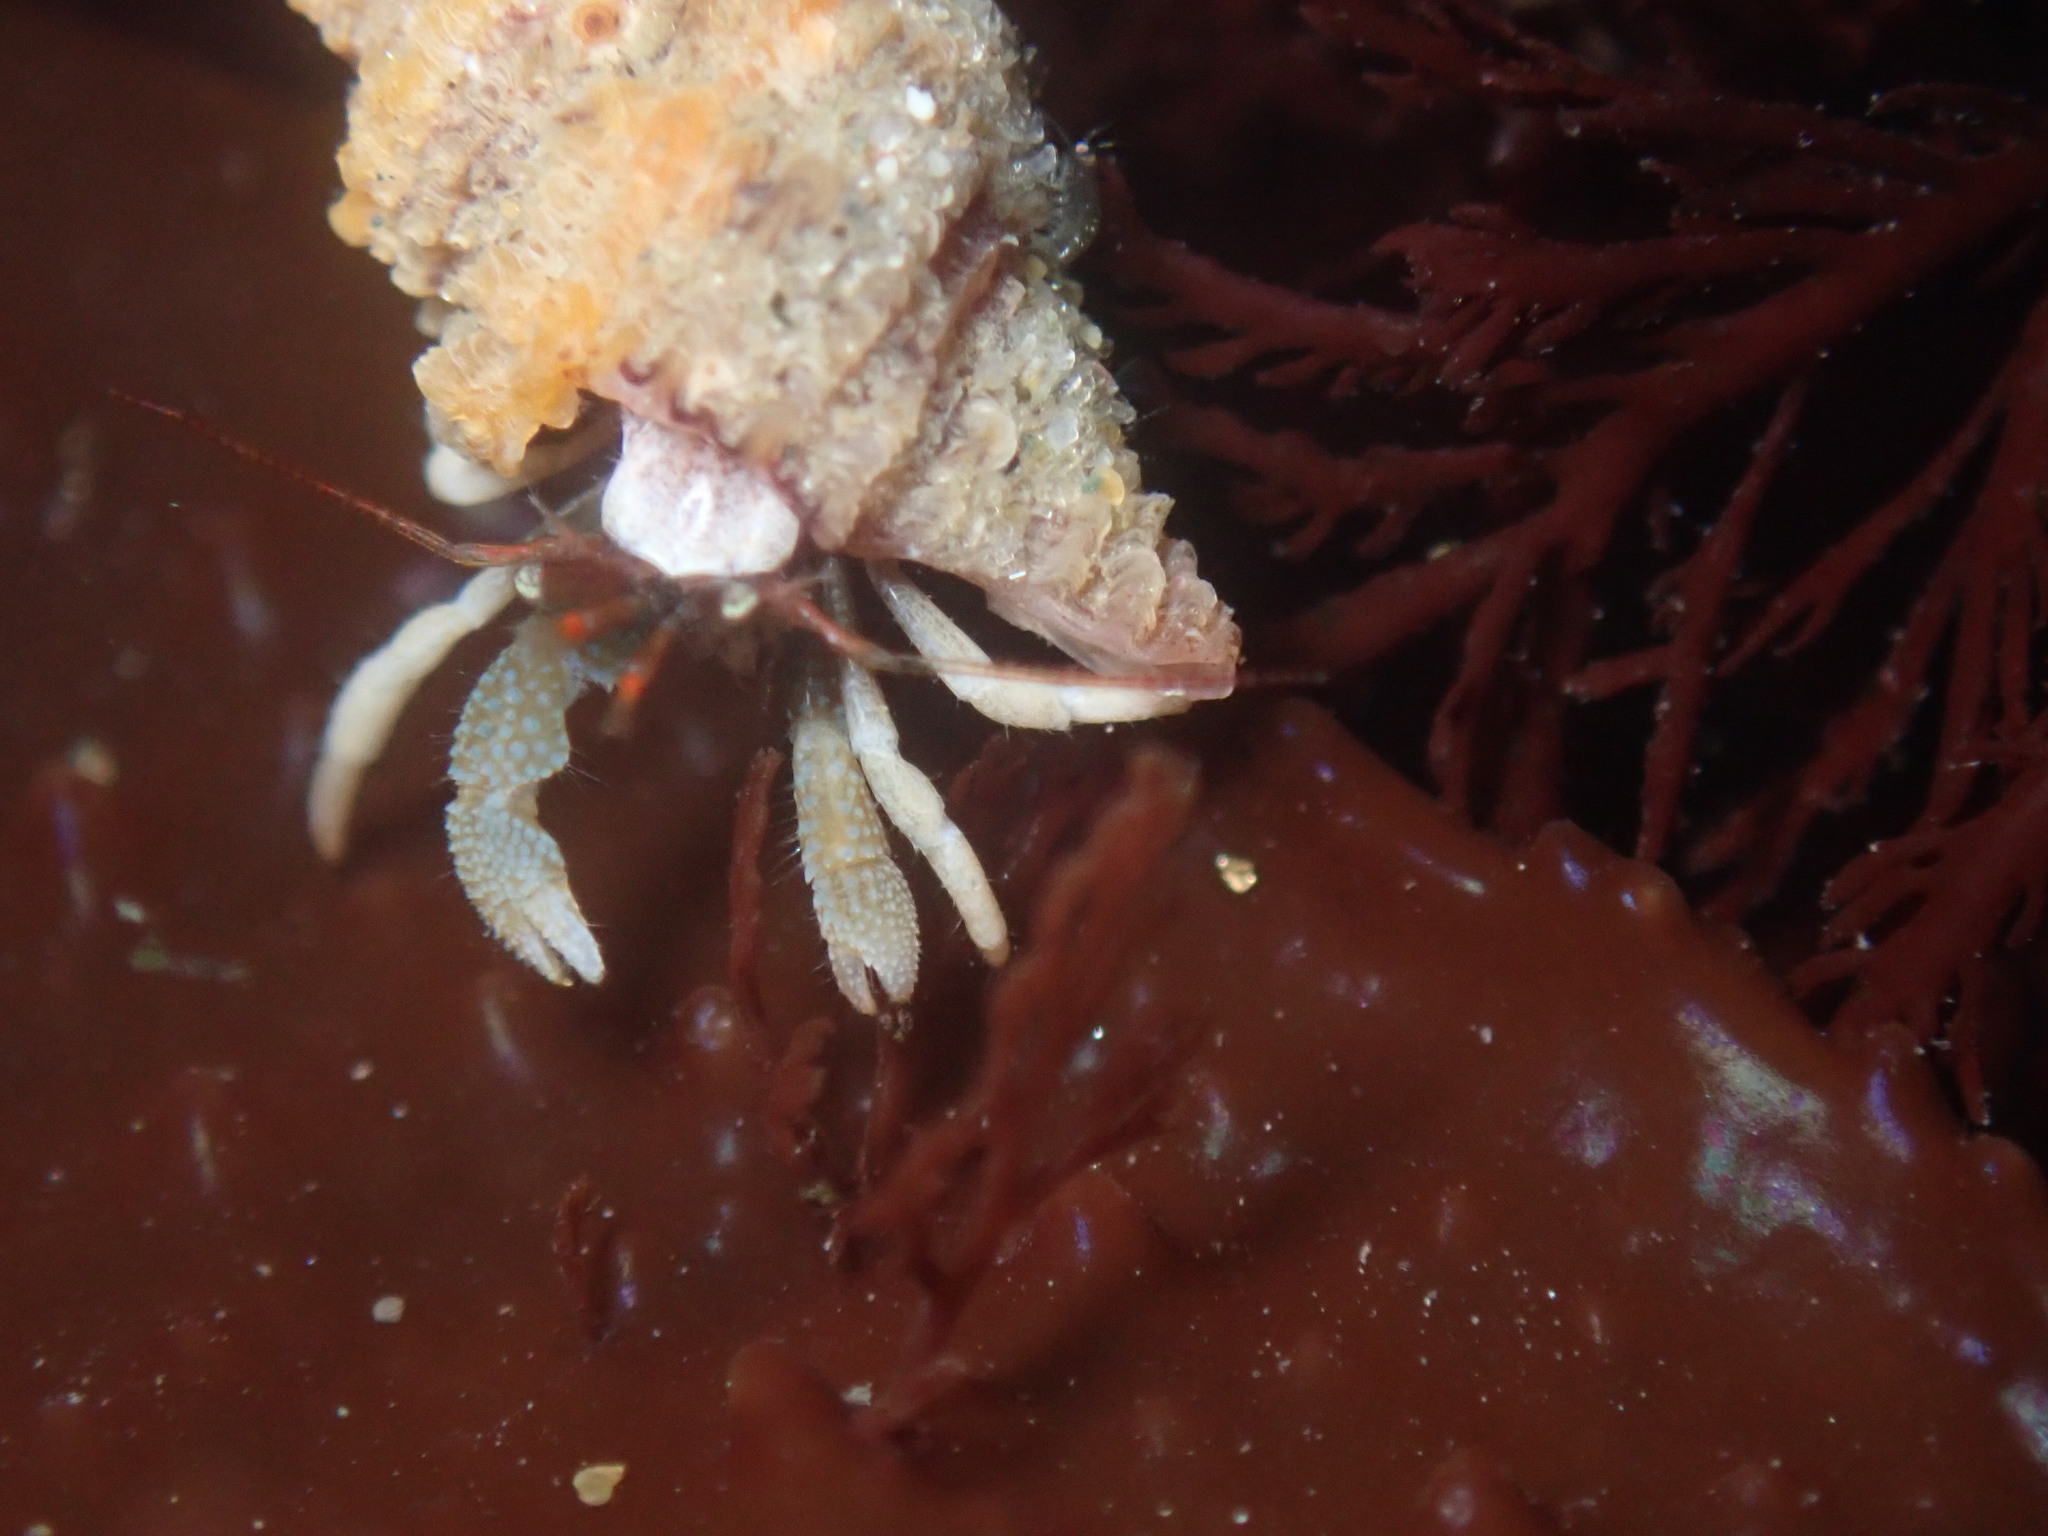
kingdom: Animalia
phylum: Arthropoda
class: Malacostraca
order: Decapoda
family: Paguridae
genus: Pagurus
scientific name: Pagurus granosimanus
